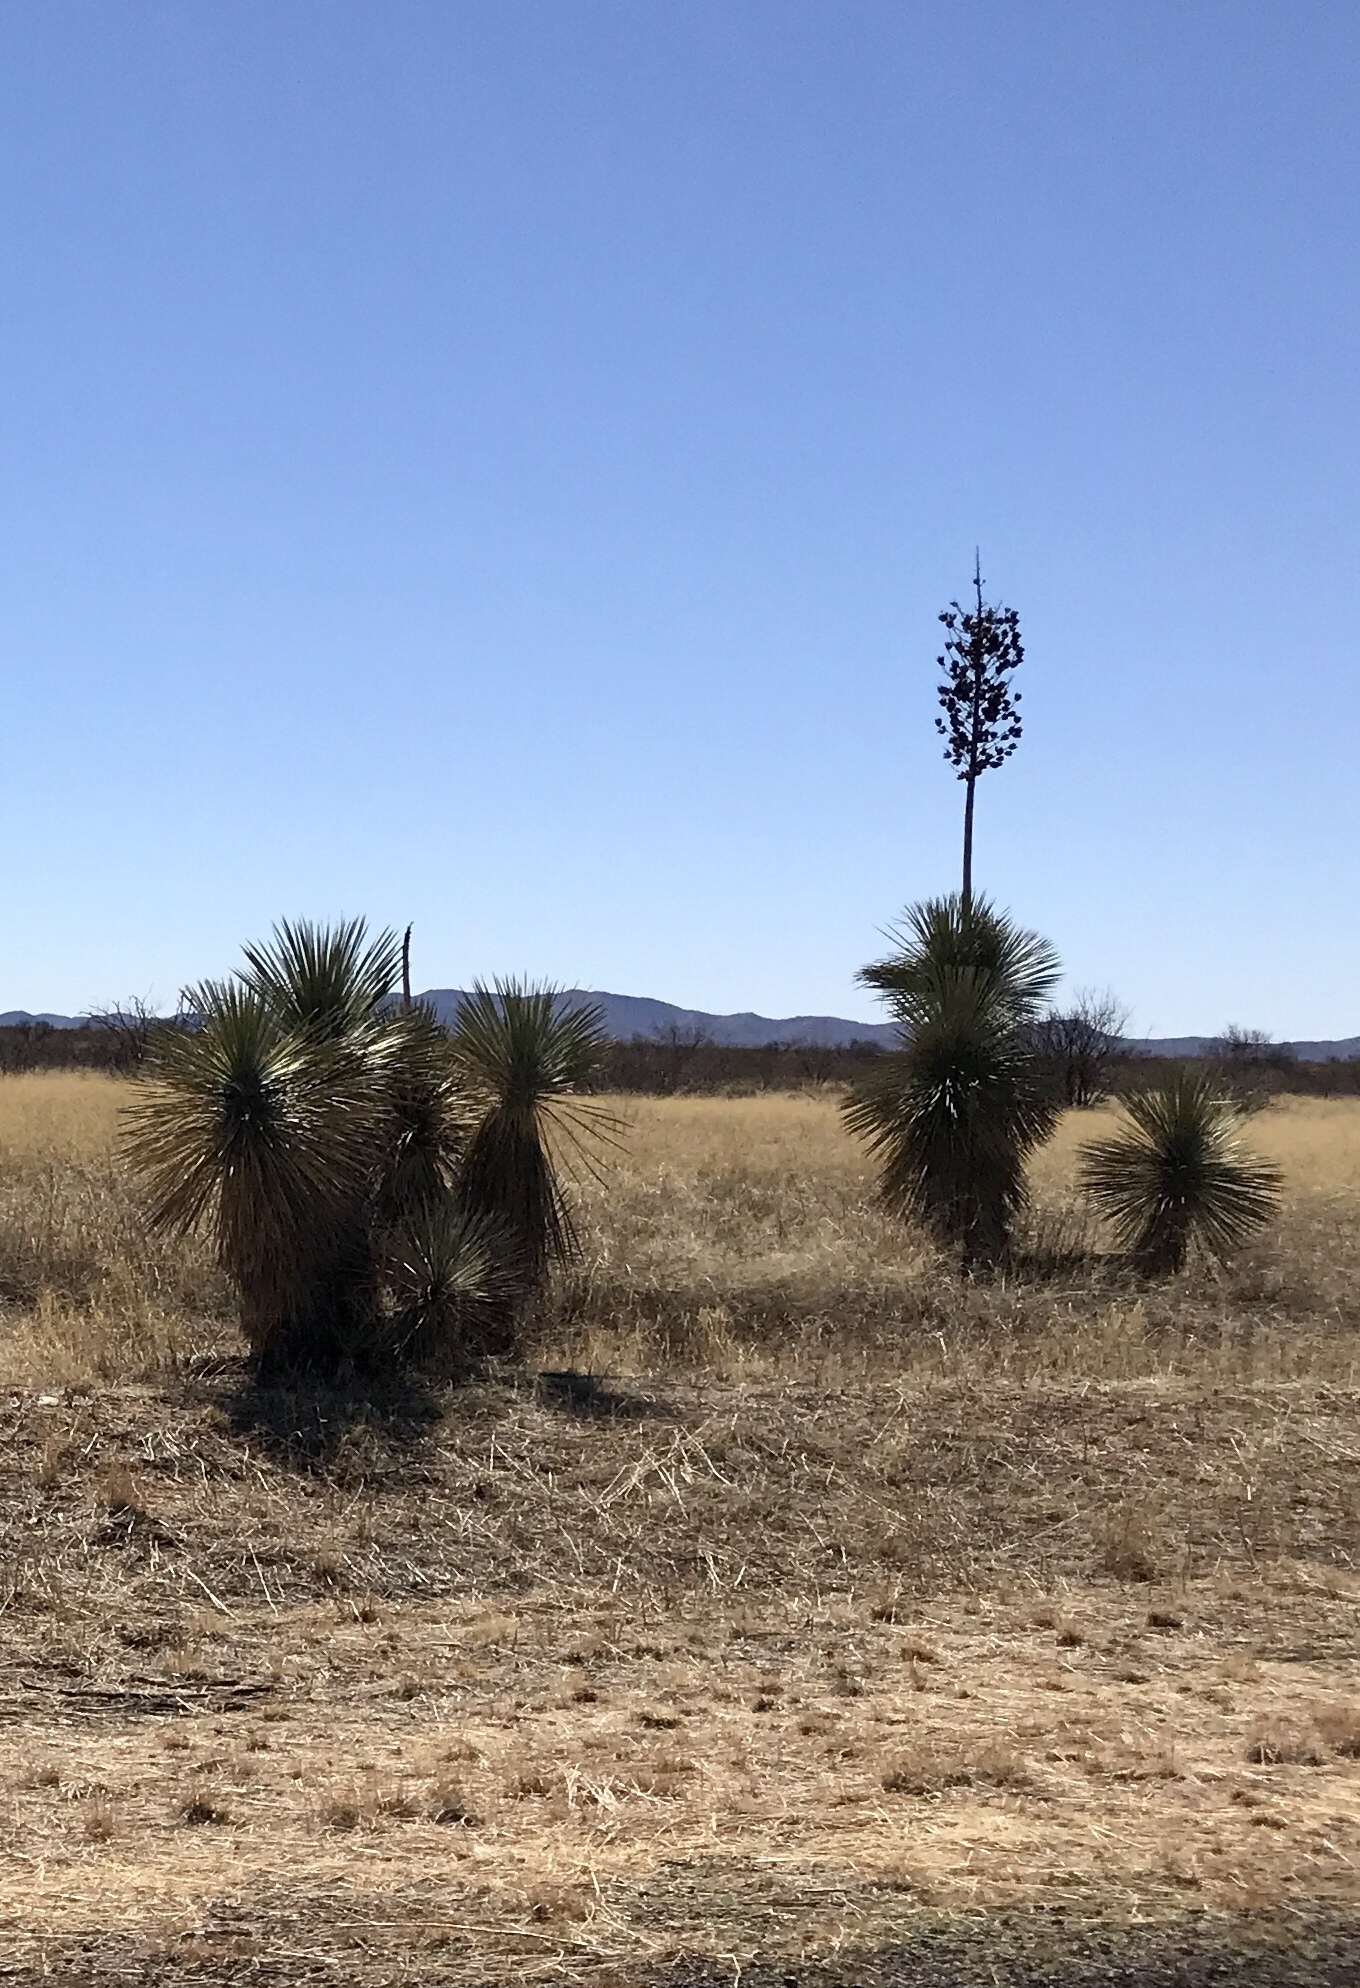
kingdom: Plantae
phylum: Tracheophyta
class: Liliopsida
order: Asparagales
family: Asparagaceae
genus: Yucca
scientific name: Yucca elata
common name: Palmella
